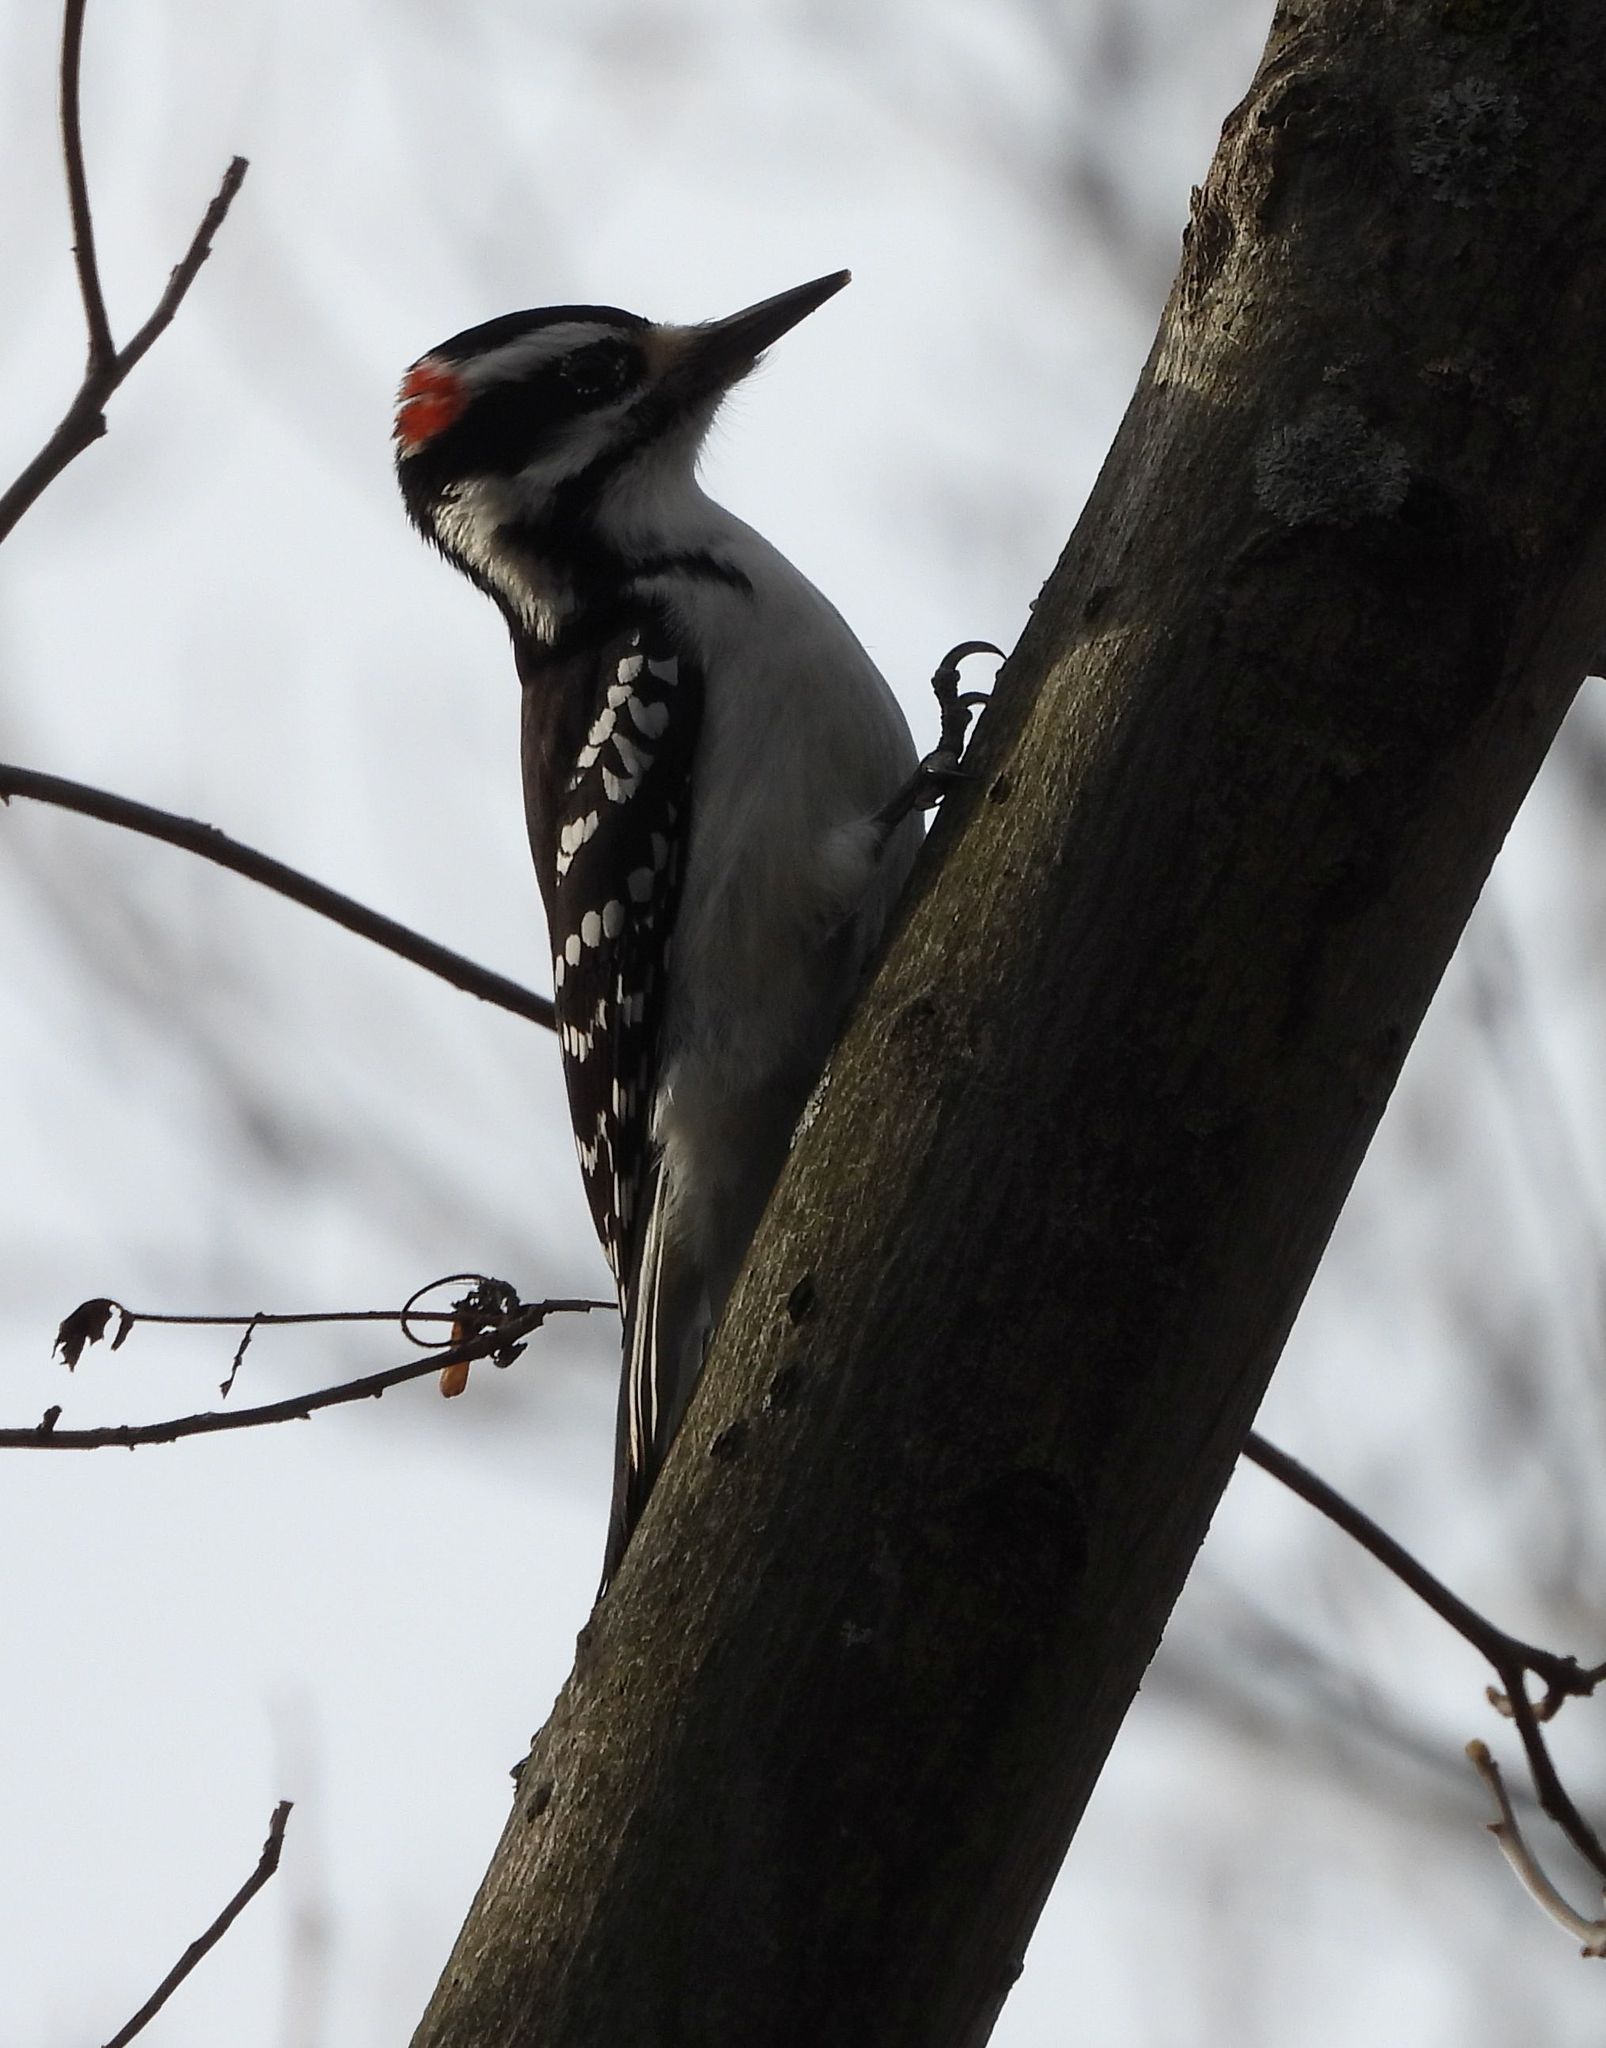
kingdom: Animalia
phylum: Chordata
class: Aves
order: Piciformes
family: Picidae
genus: Leuconotopicus
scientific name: Leuconotopicus villosus
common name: Hairy woodpecker
